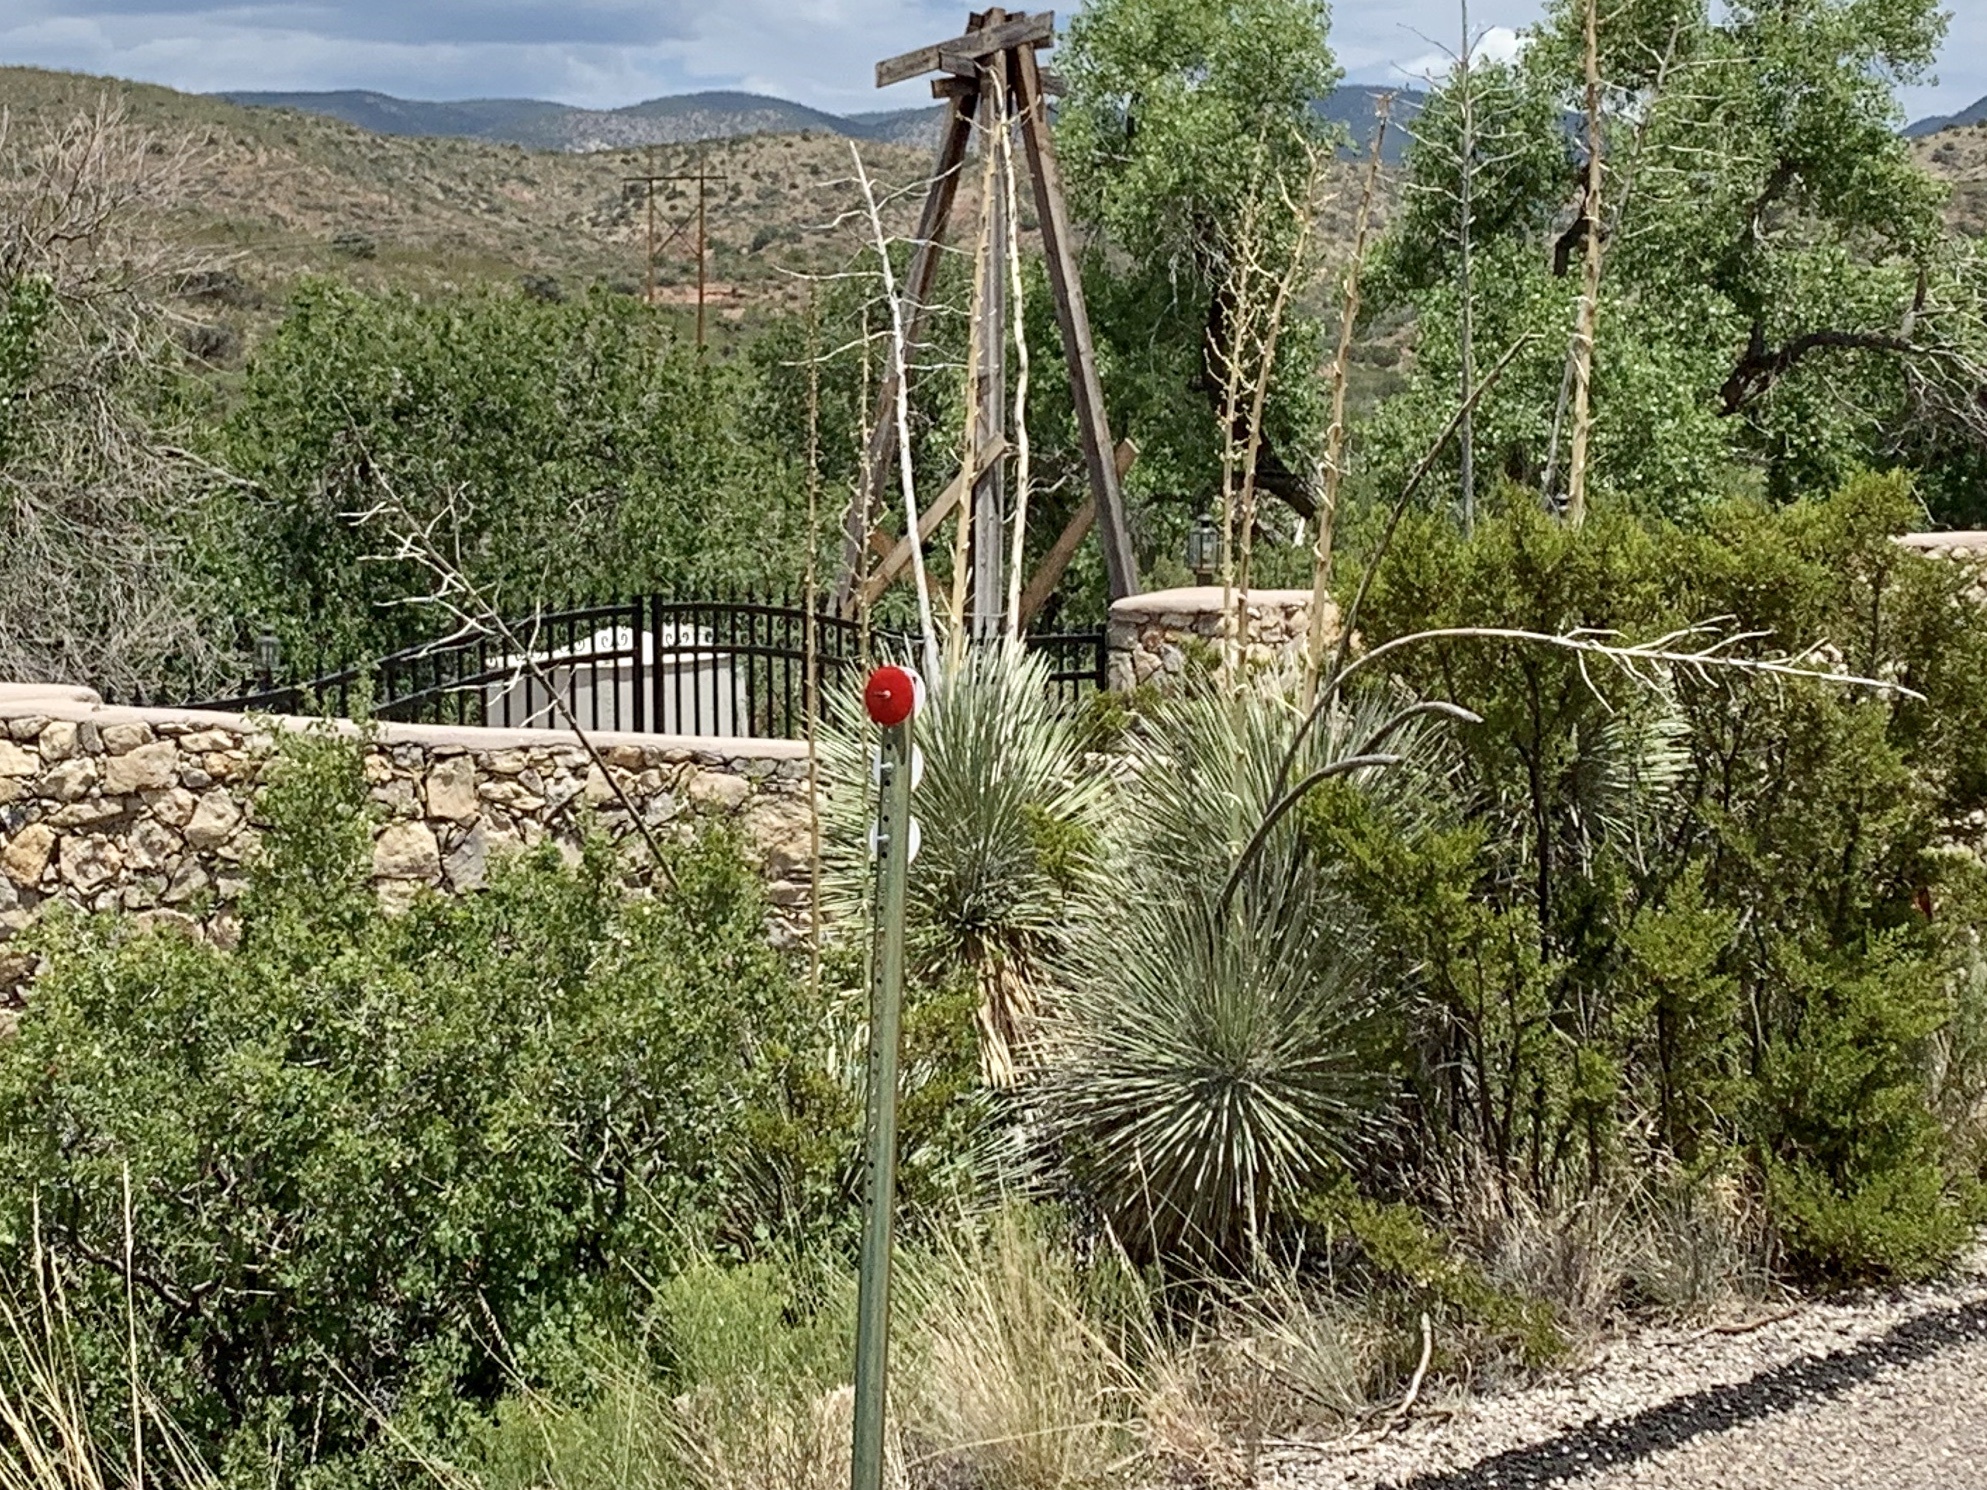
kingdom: Plantae
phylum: Tracheophyta
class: Liliopsida
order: Asparagales
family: Asparagaceae
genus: Yucca
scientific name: Yucca elata
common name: Palmella
